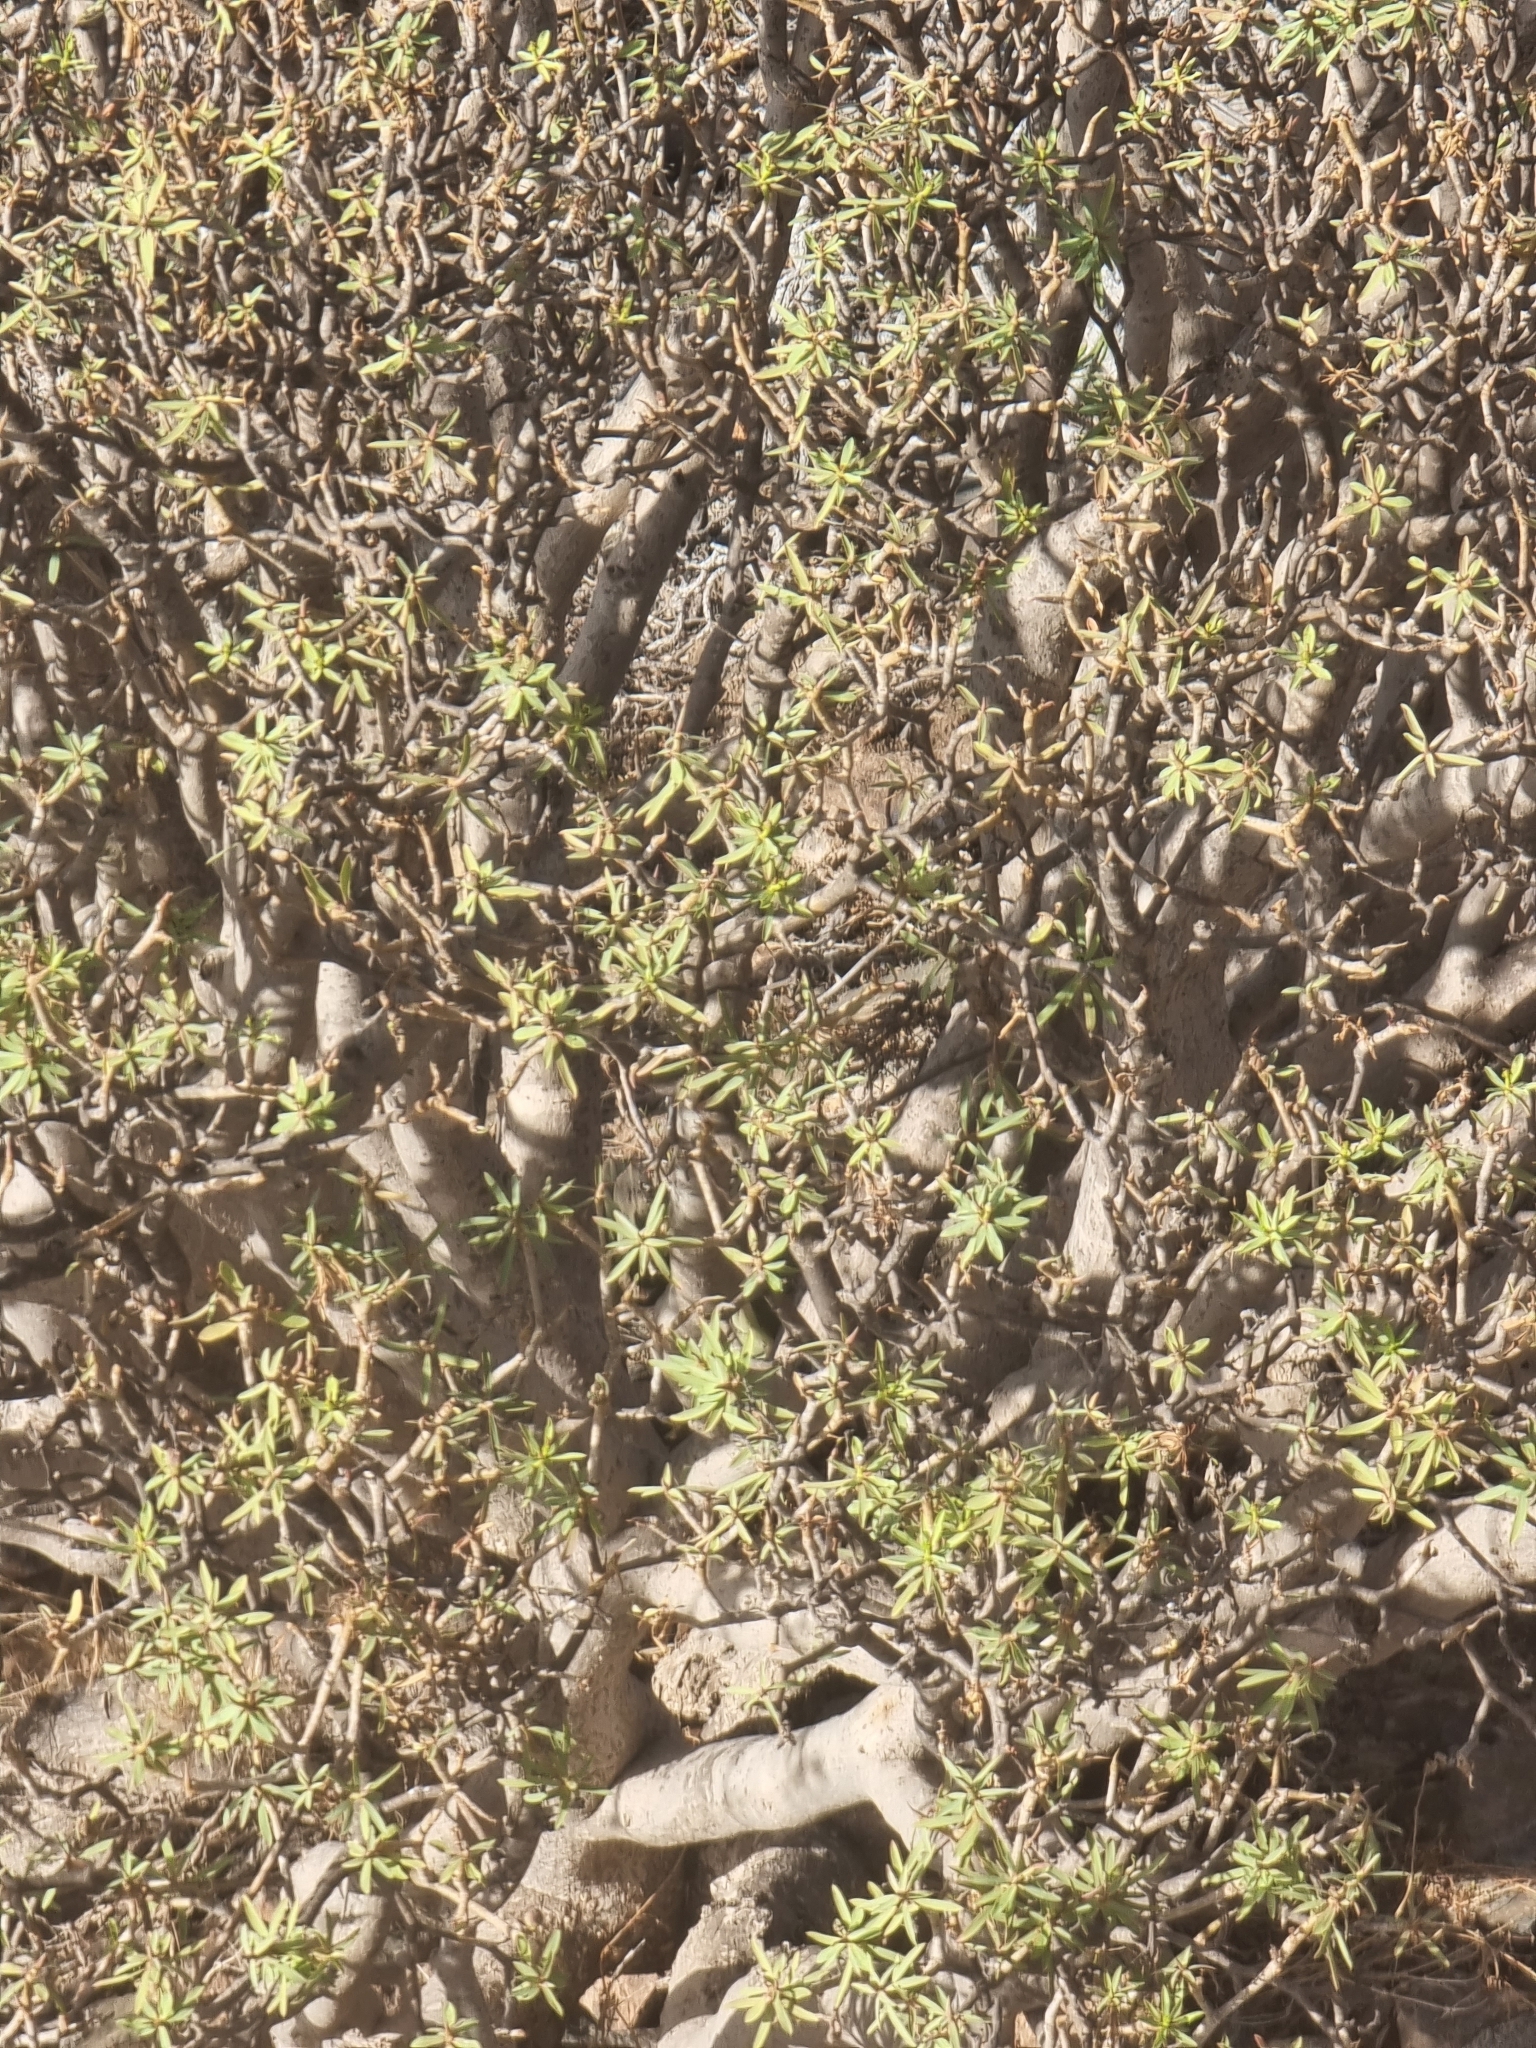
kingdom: Plantae
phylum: Tracheophyta
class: Magnoliopsida
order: Malpighiales
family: Euphorbiaceae
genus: Euphorbia
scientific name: Euphorbia balsamifera
